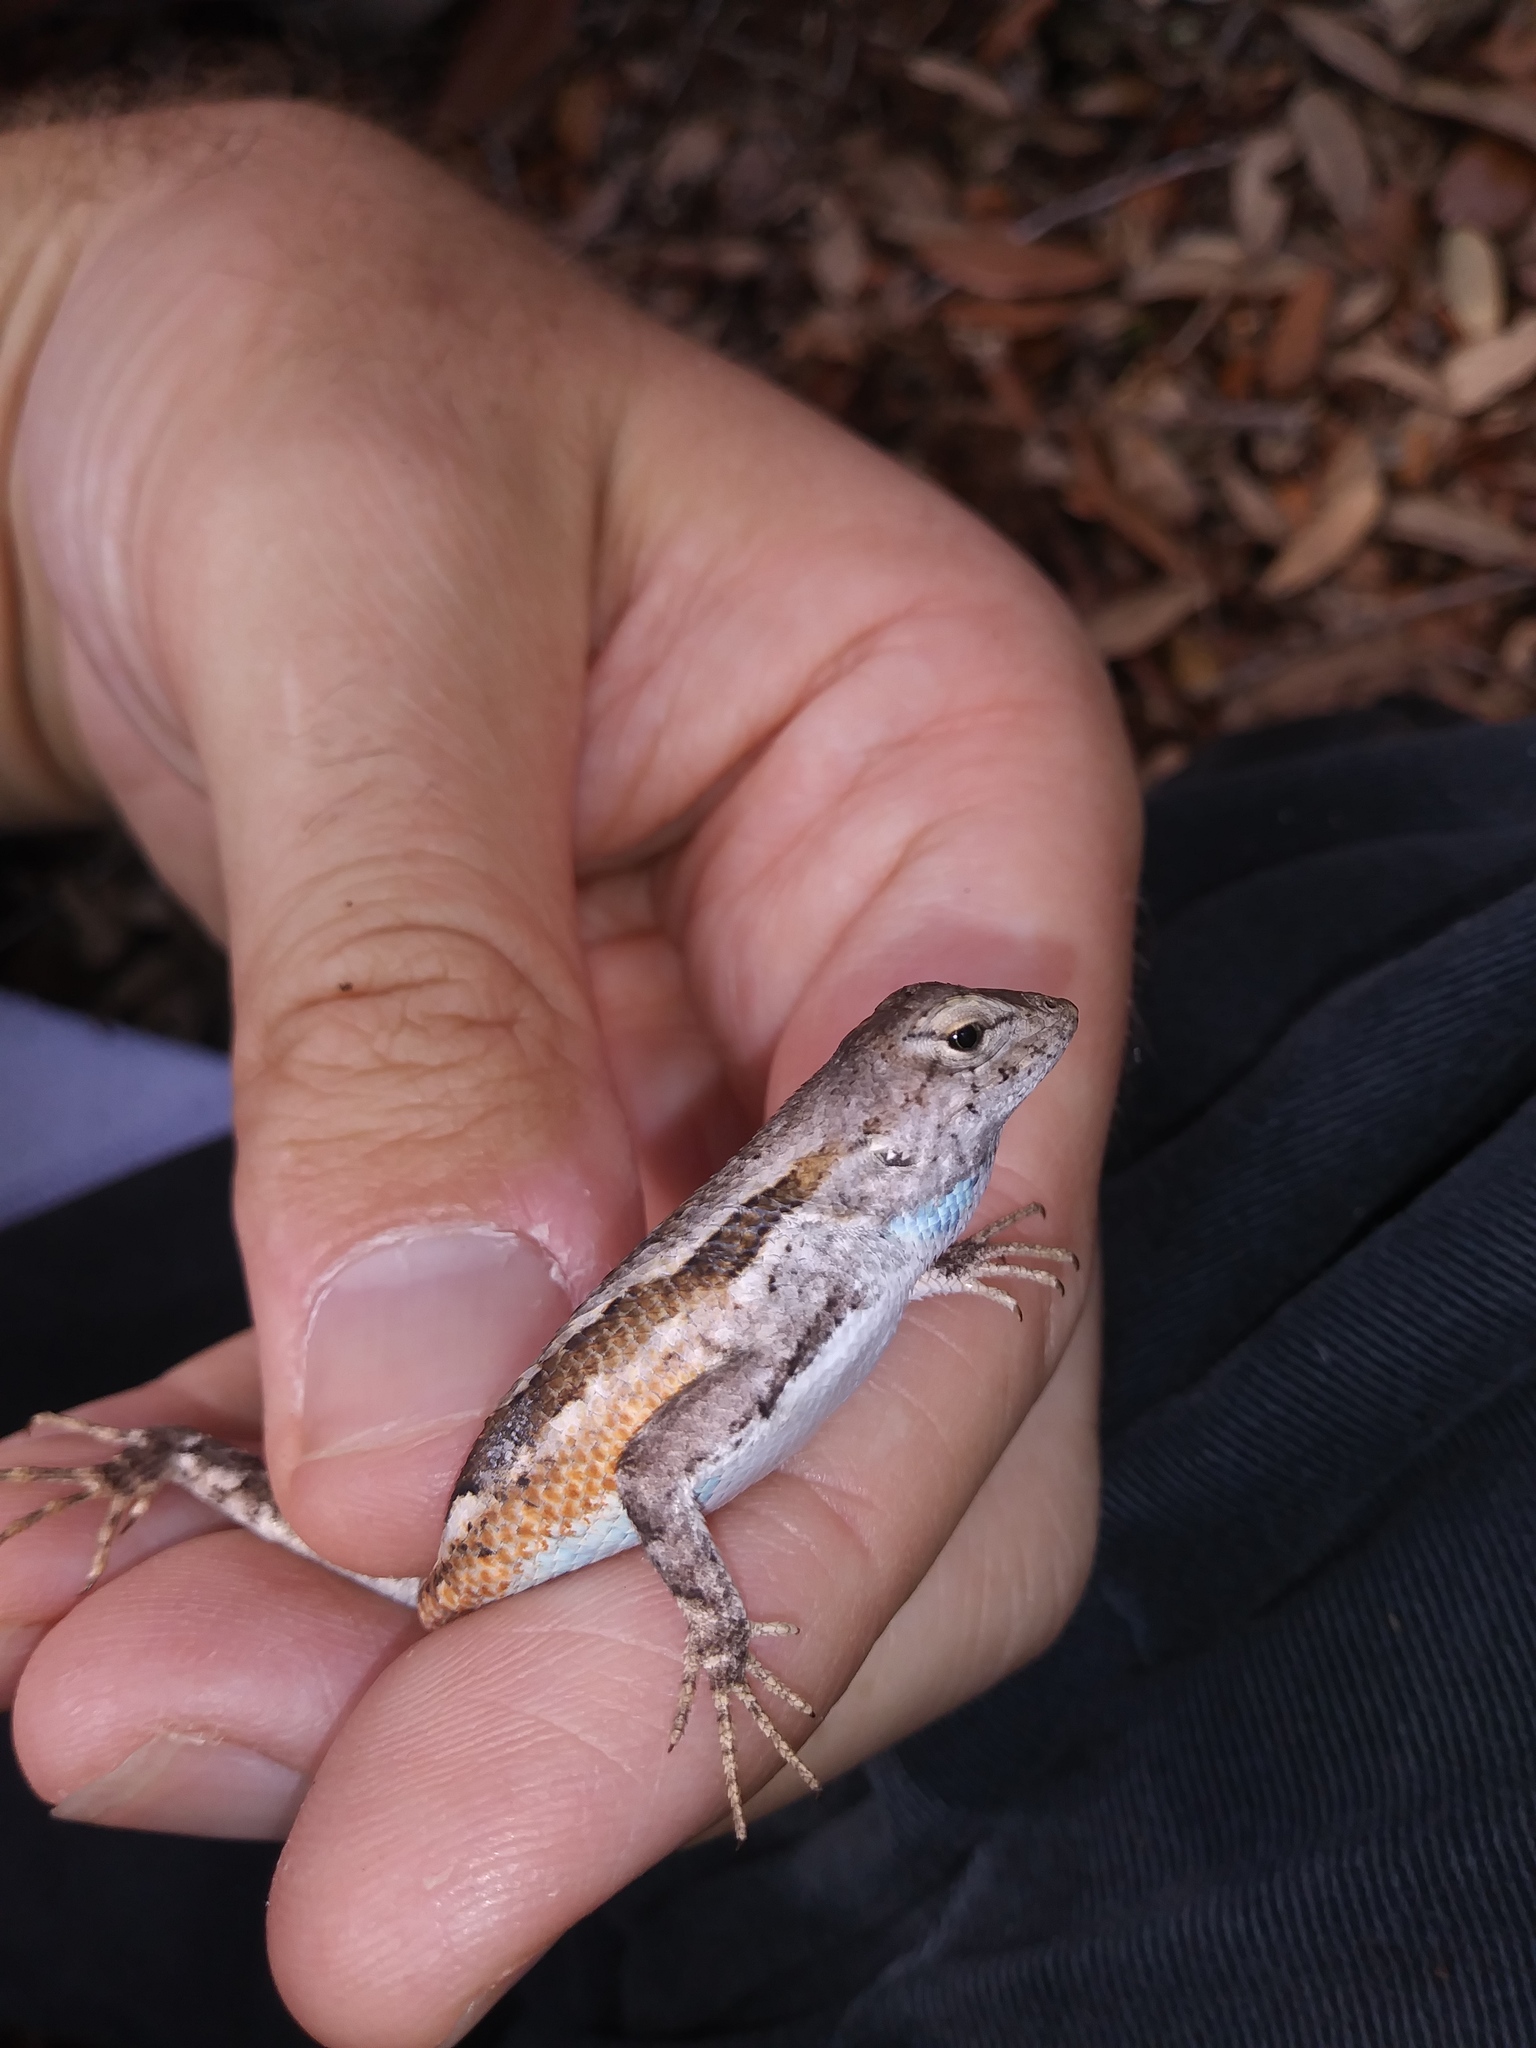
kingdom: Animalia
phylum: Chordata
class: Squamata
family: Phrynosomatidae
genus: Sceloporus
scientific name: Sceloporus woodi
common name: Florida scrub lizard
